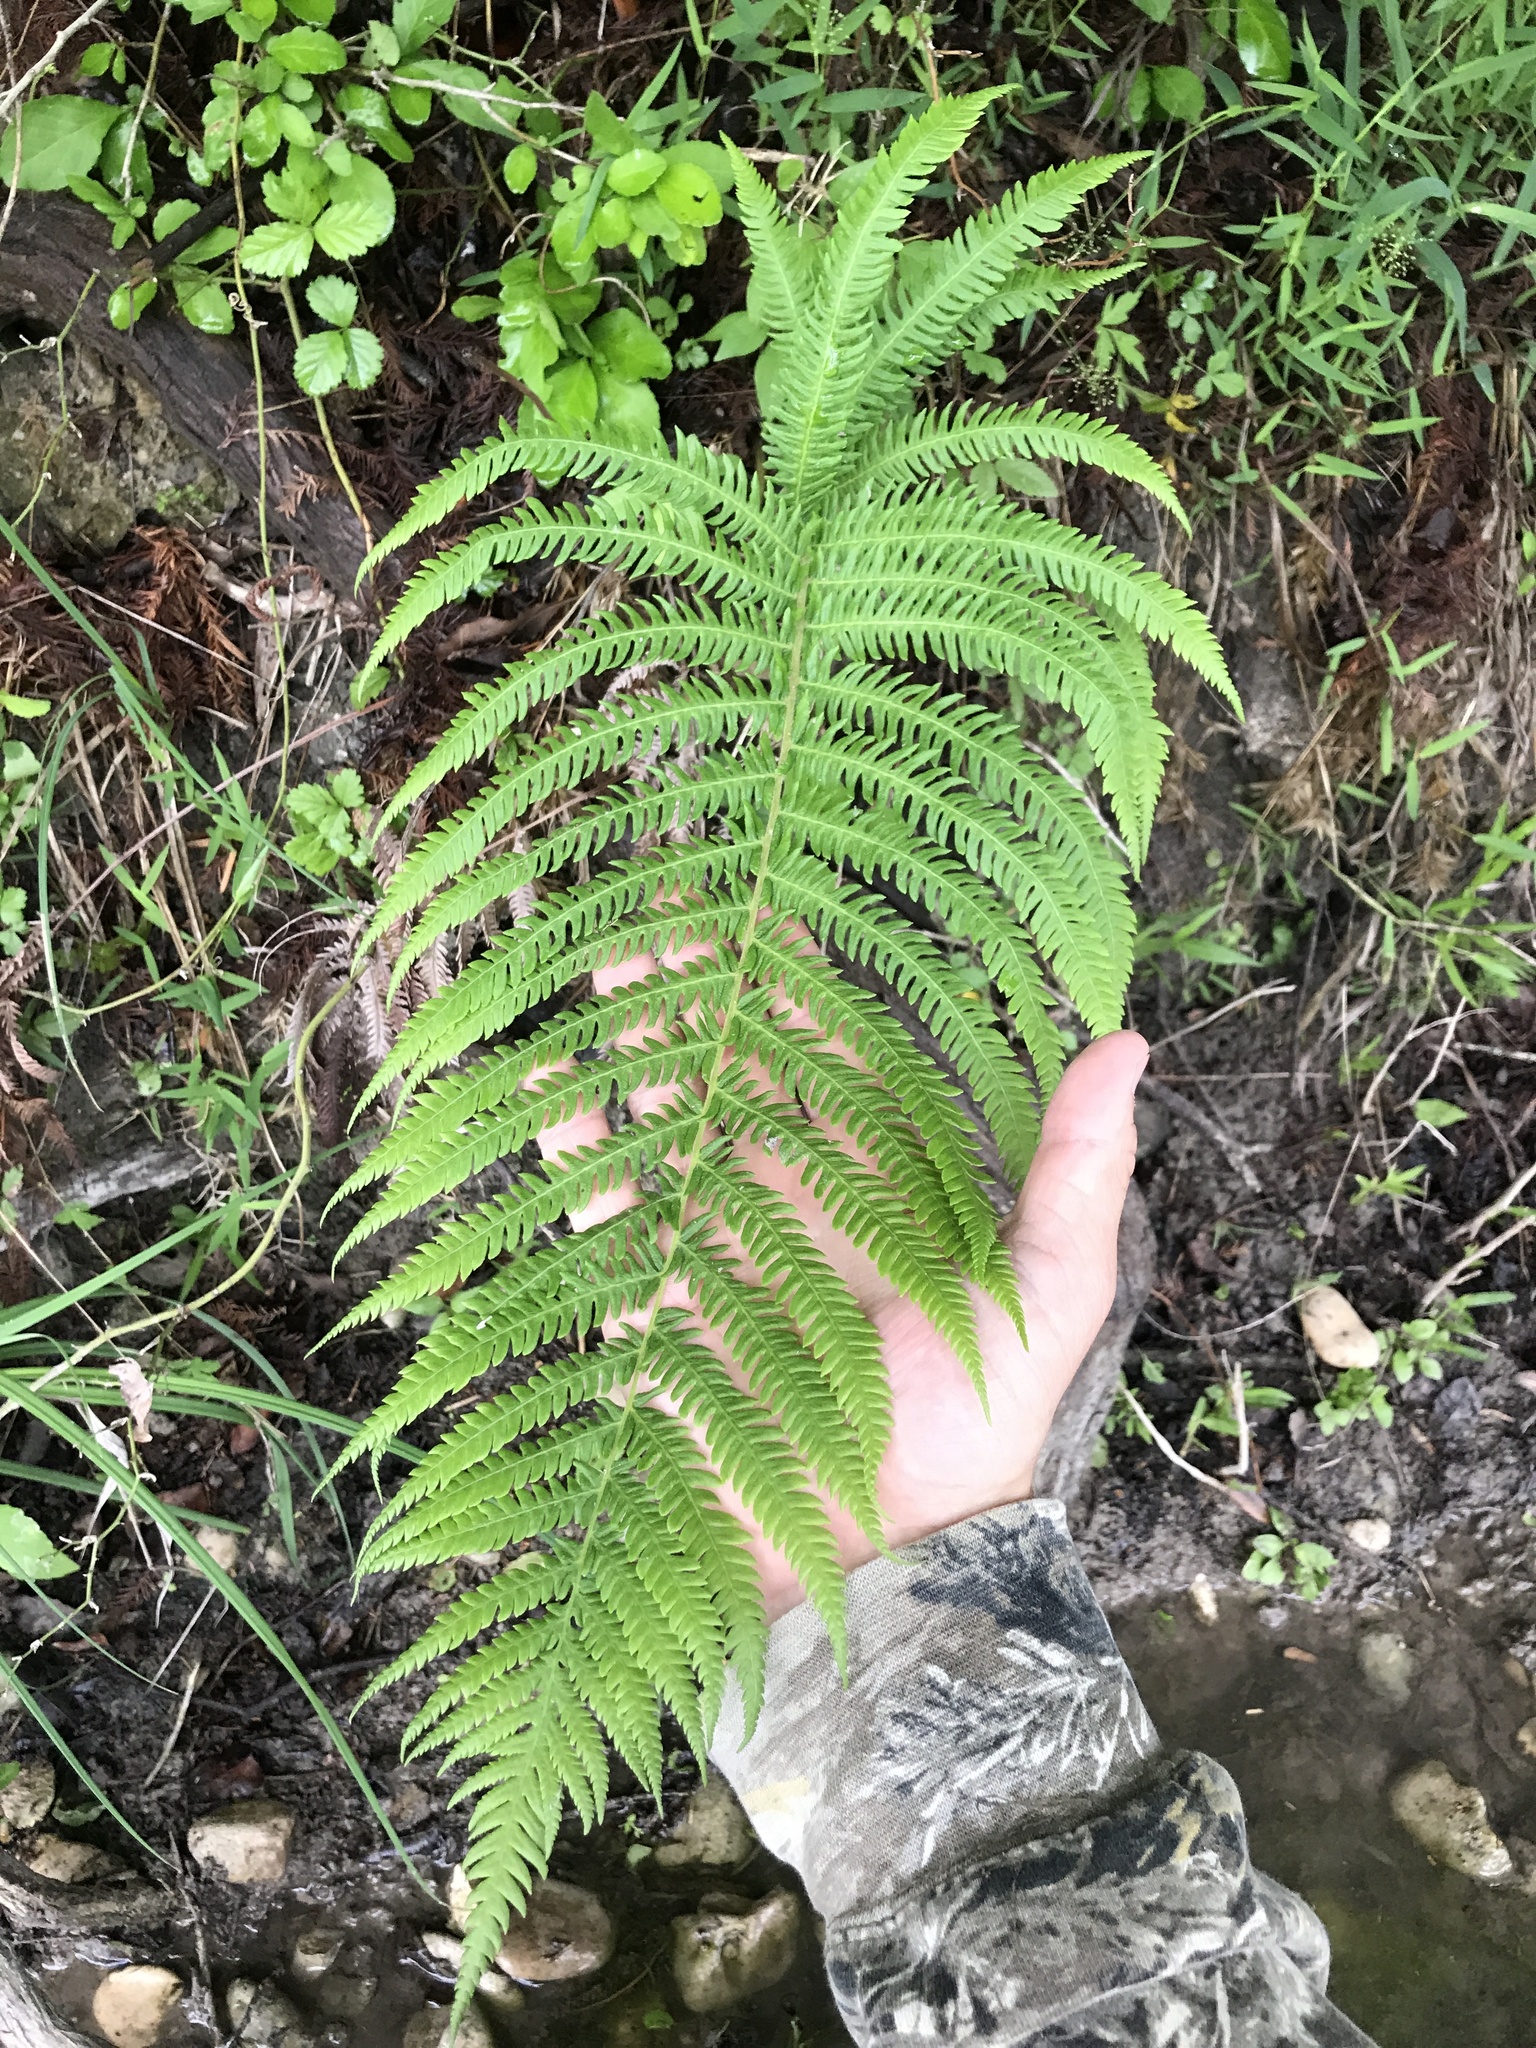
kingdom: Plantae
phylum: Tracheophyta
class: Polypodiopsida
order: Polypodiales
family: Thelypteridaceae
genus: Pelazoneuron
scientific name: Pelazoneuron ovatum
